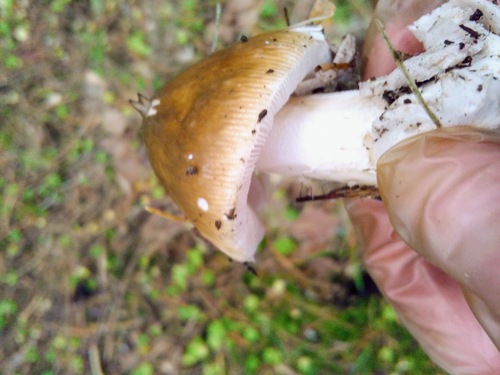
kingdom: Fungi
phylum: Basidiomycota
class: Agaricomycetes
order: Agaricales
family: Amanitaceae
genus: Amanita
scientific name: Amanita fulva
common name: Tawny grisette
